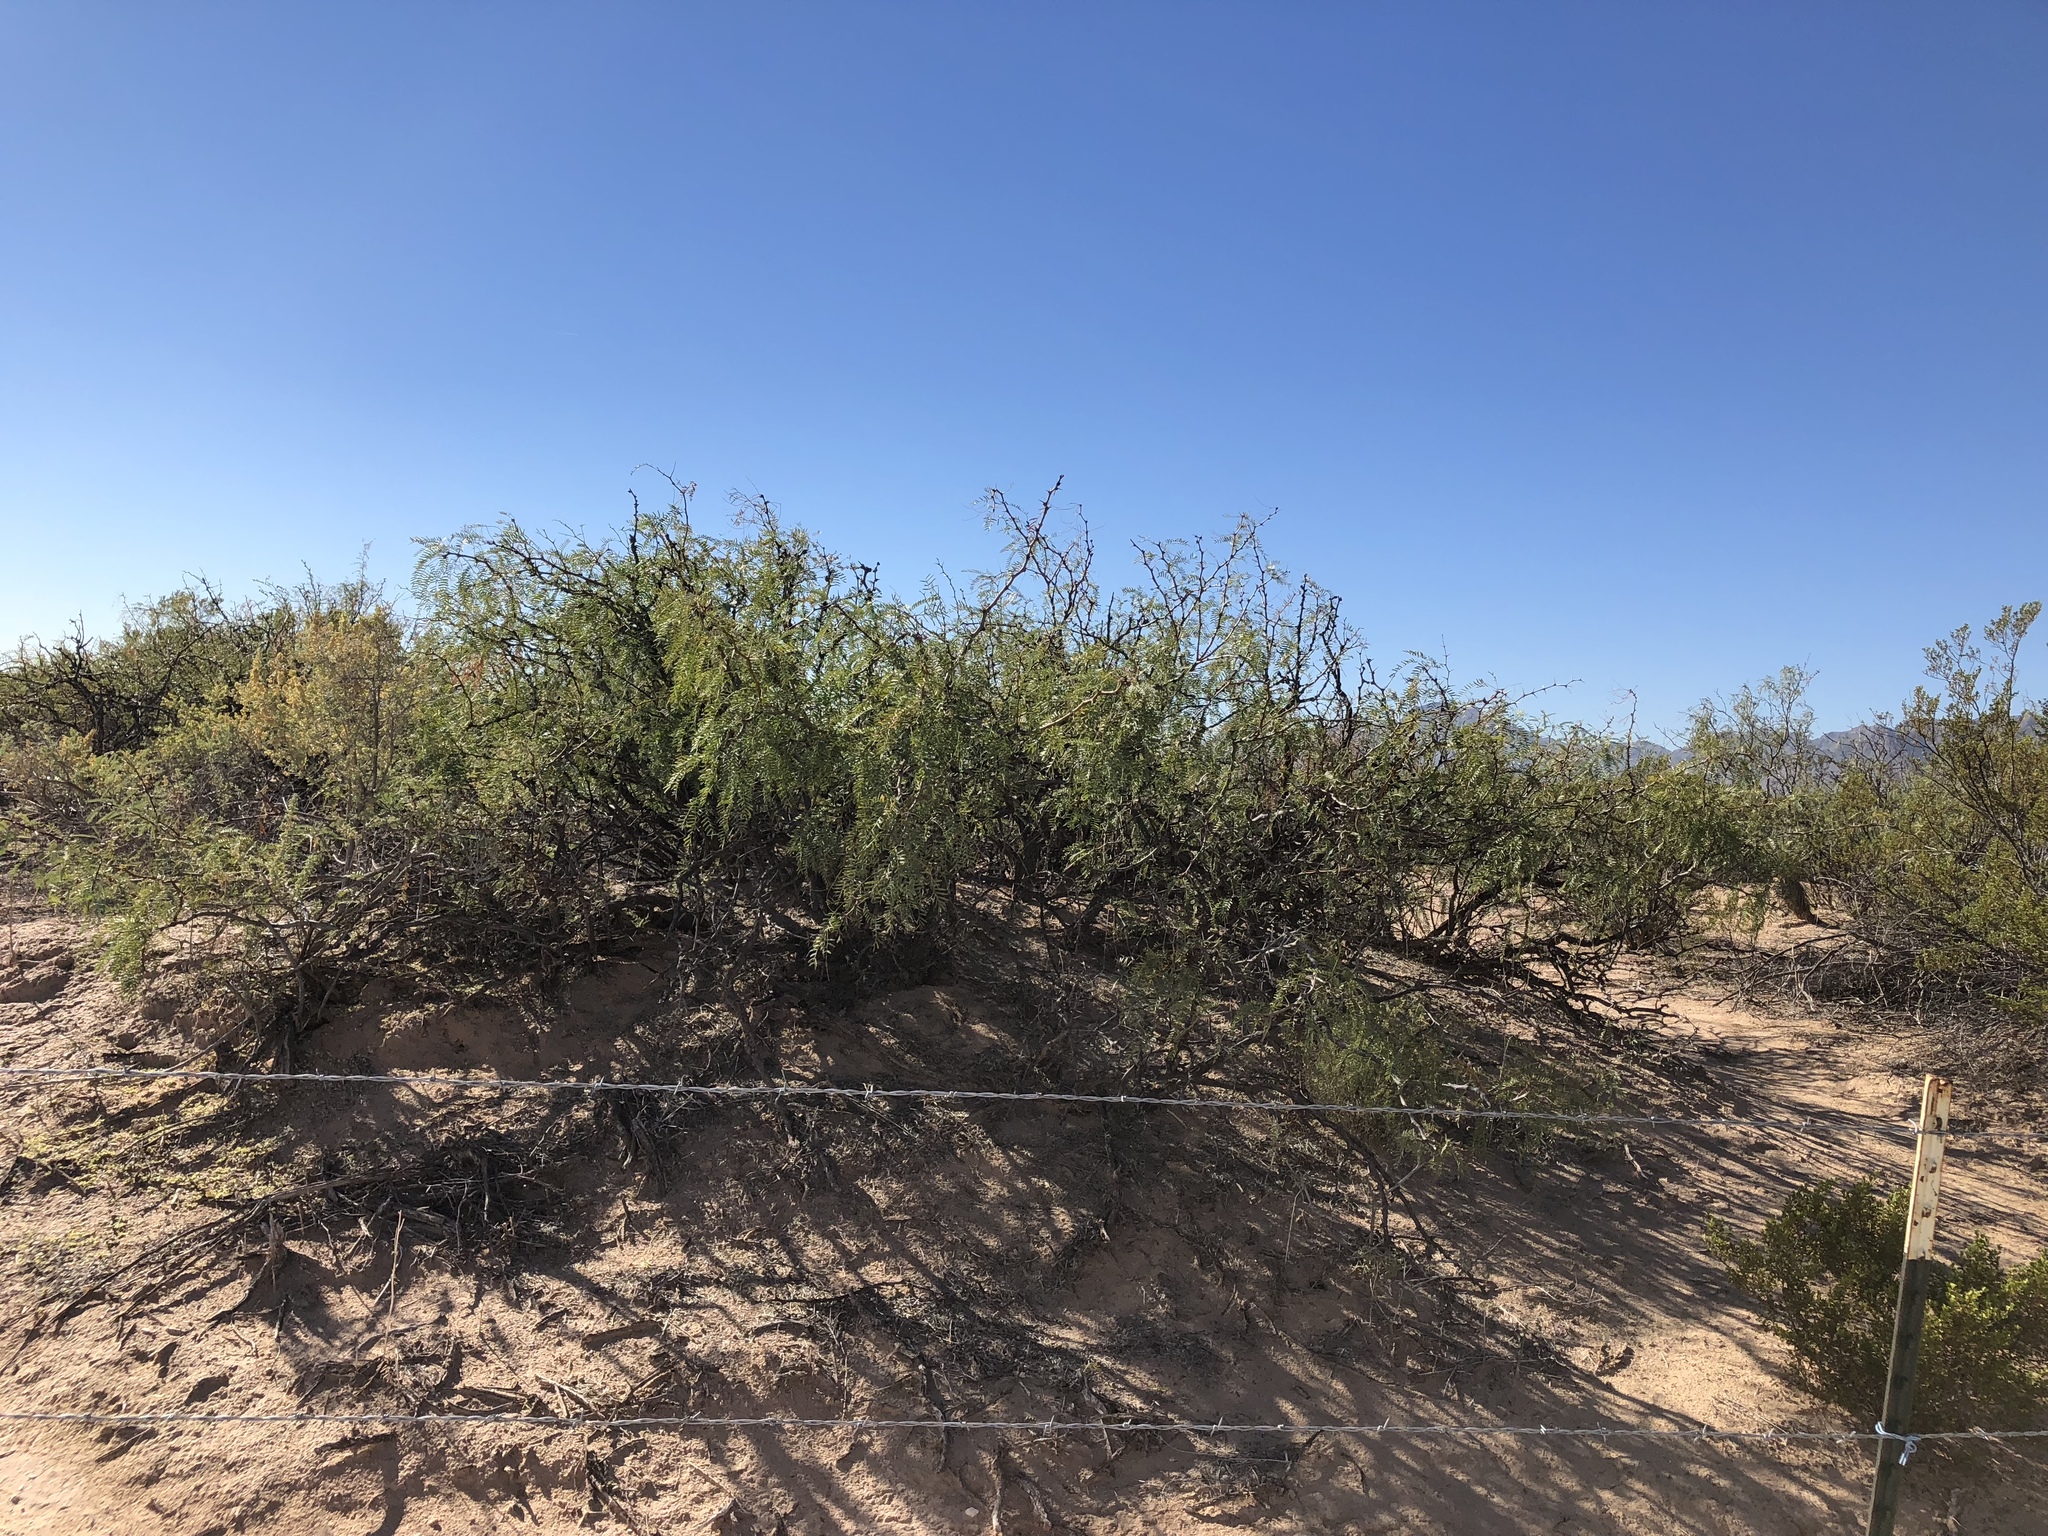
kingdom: Plantae
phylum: Tracheophyta
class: Magnoliopsida
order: Fabales
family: Fabaceae
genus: Prosopis
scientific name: Prosopis glandulosa
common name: Honey mesquite
